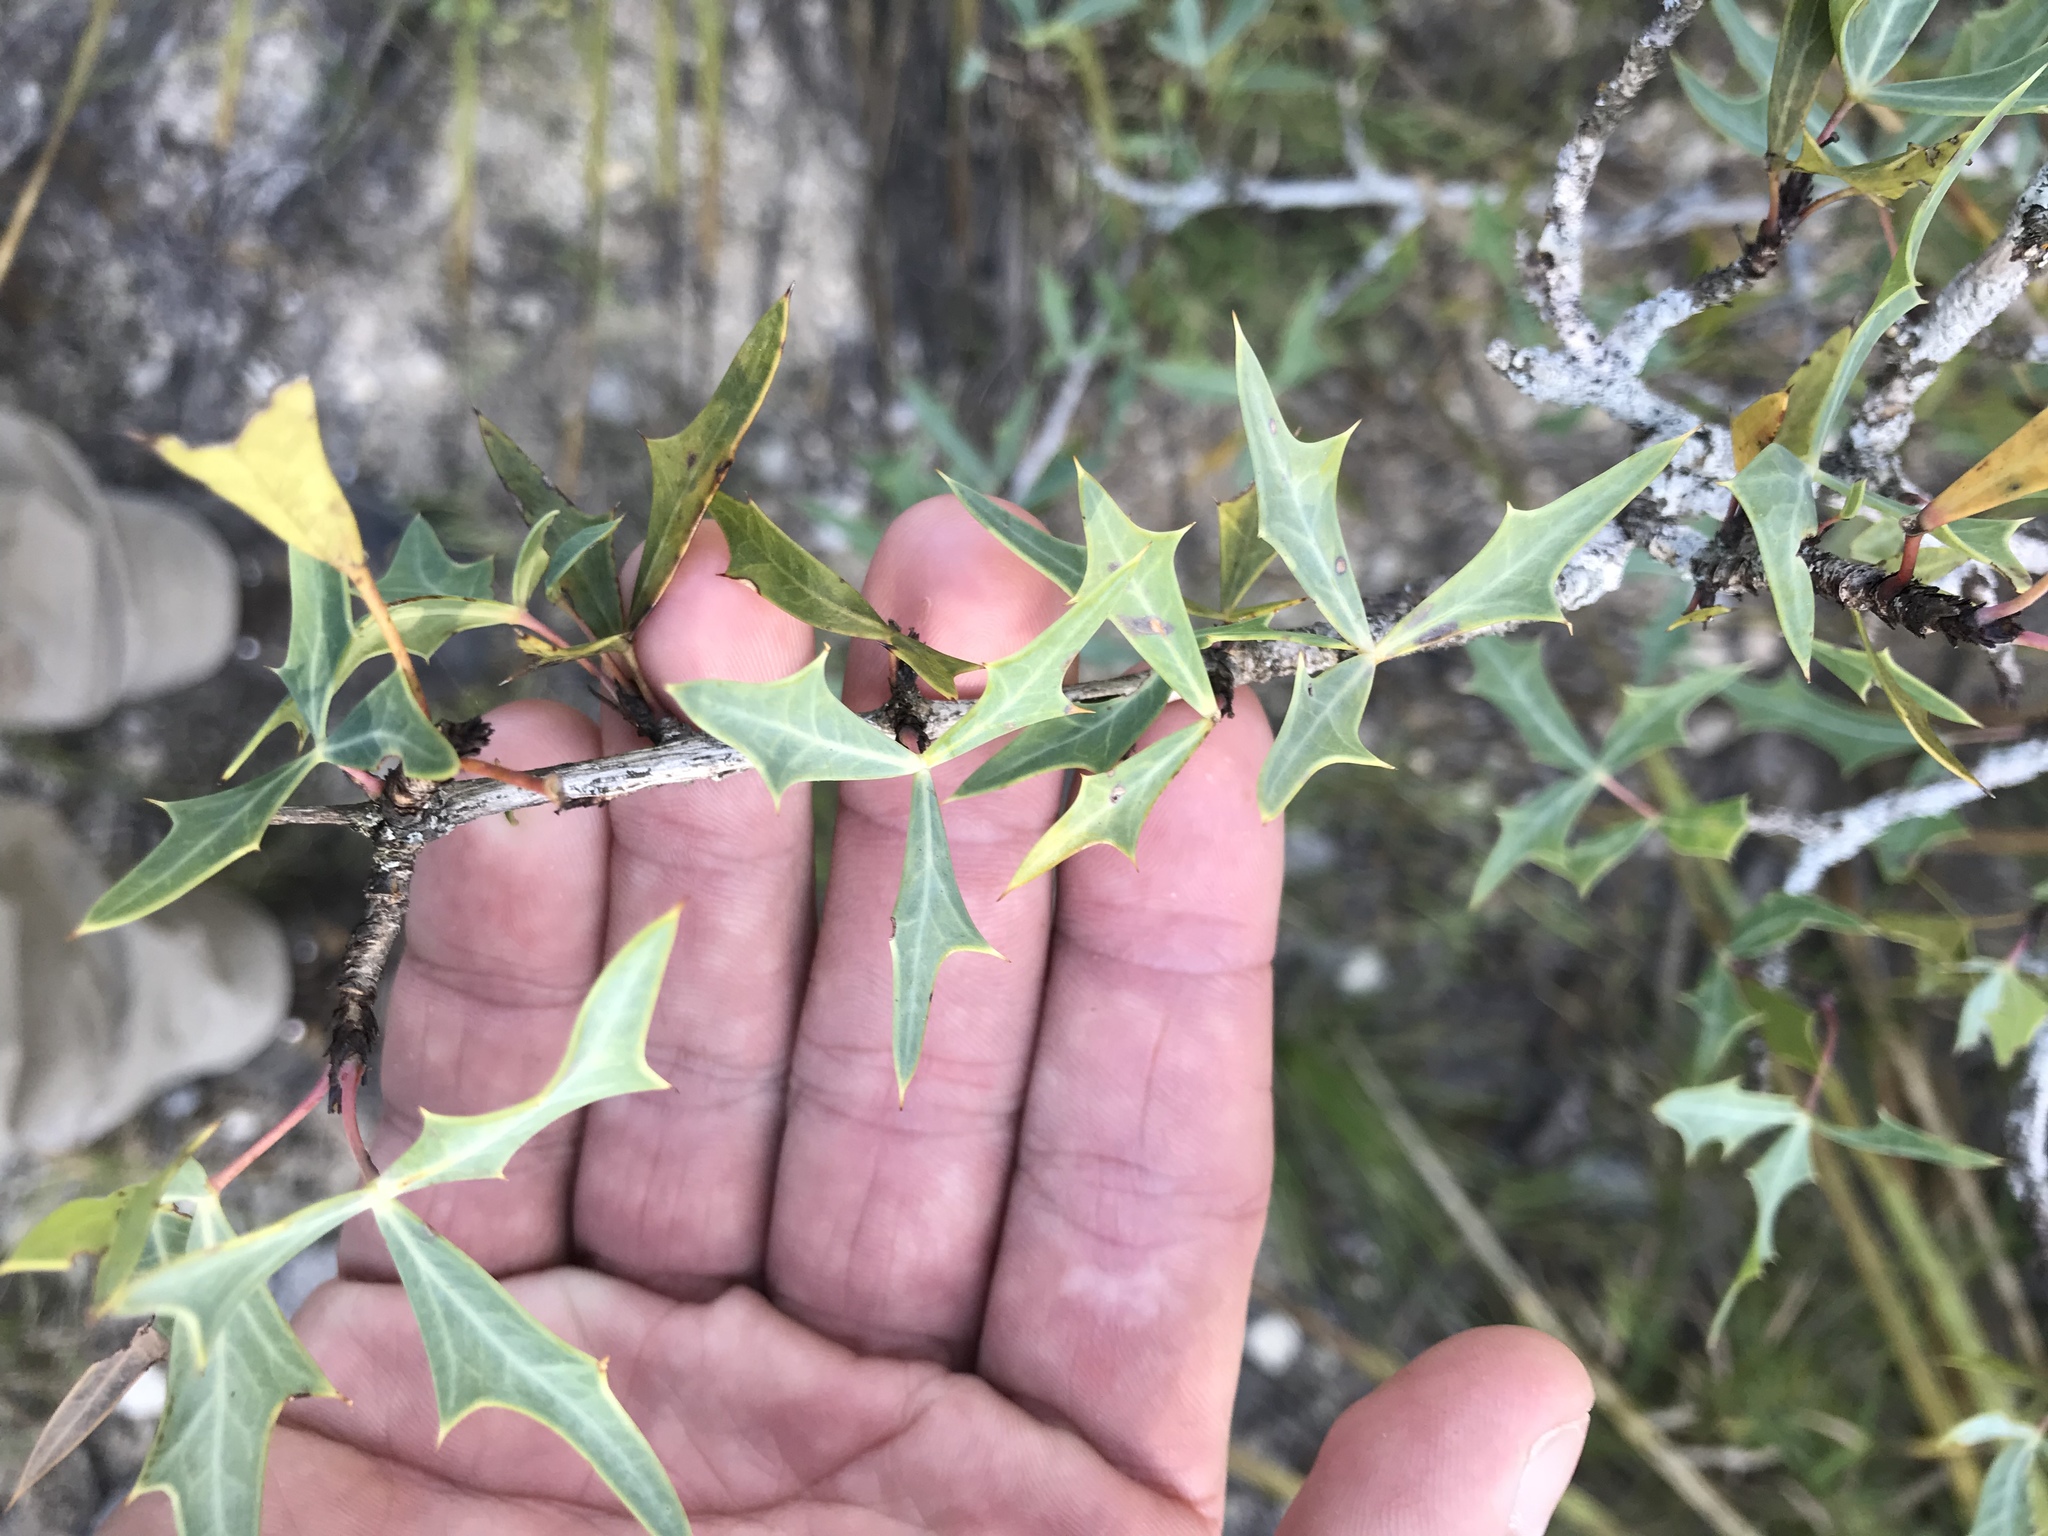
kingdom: Plantae
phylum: Tracheophyta
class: Magnoliopsida
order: Ranunculales
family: Berberidaceae
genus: Alloberberis
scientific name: Alloberberis trifoliolata
